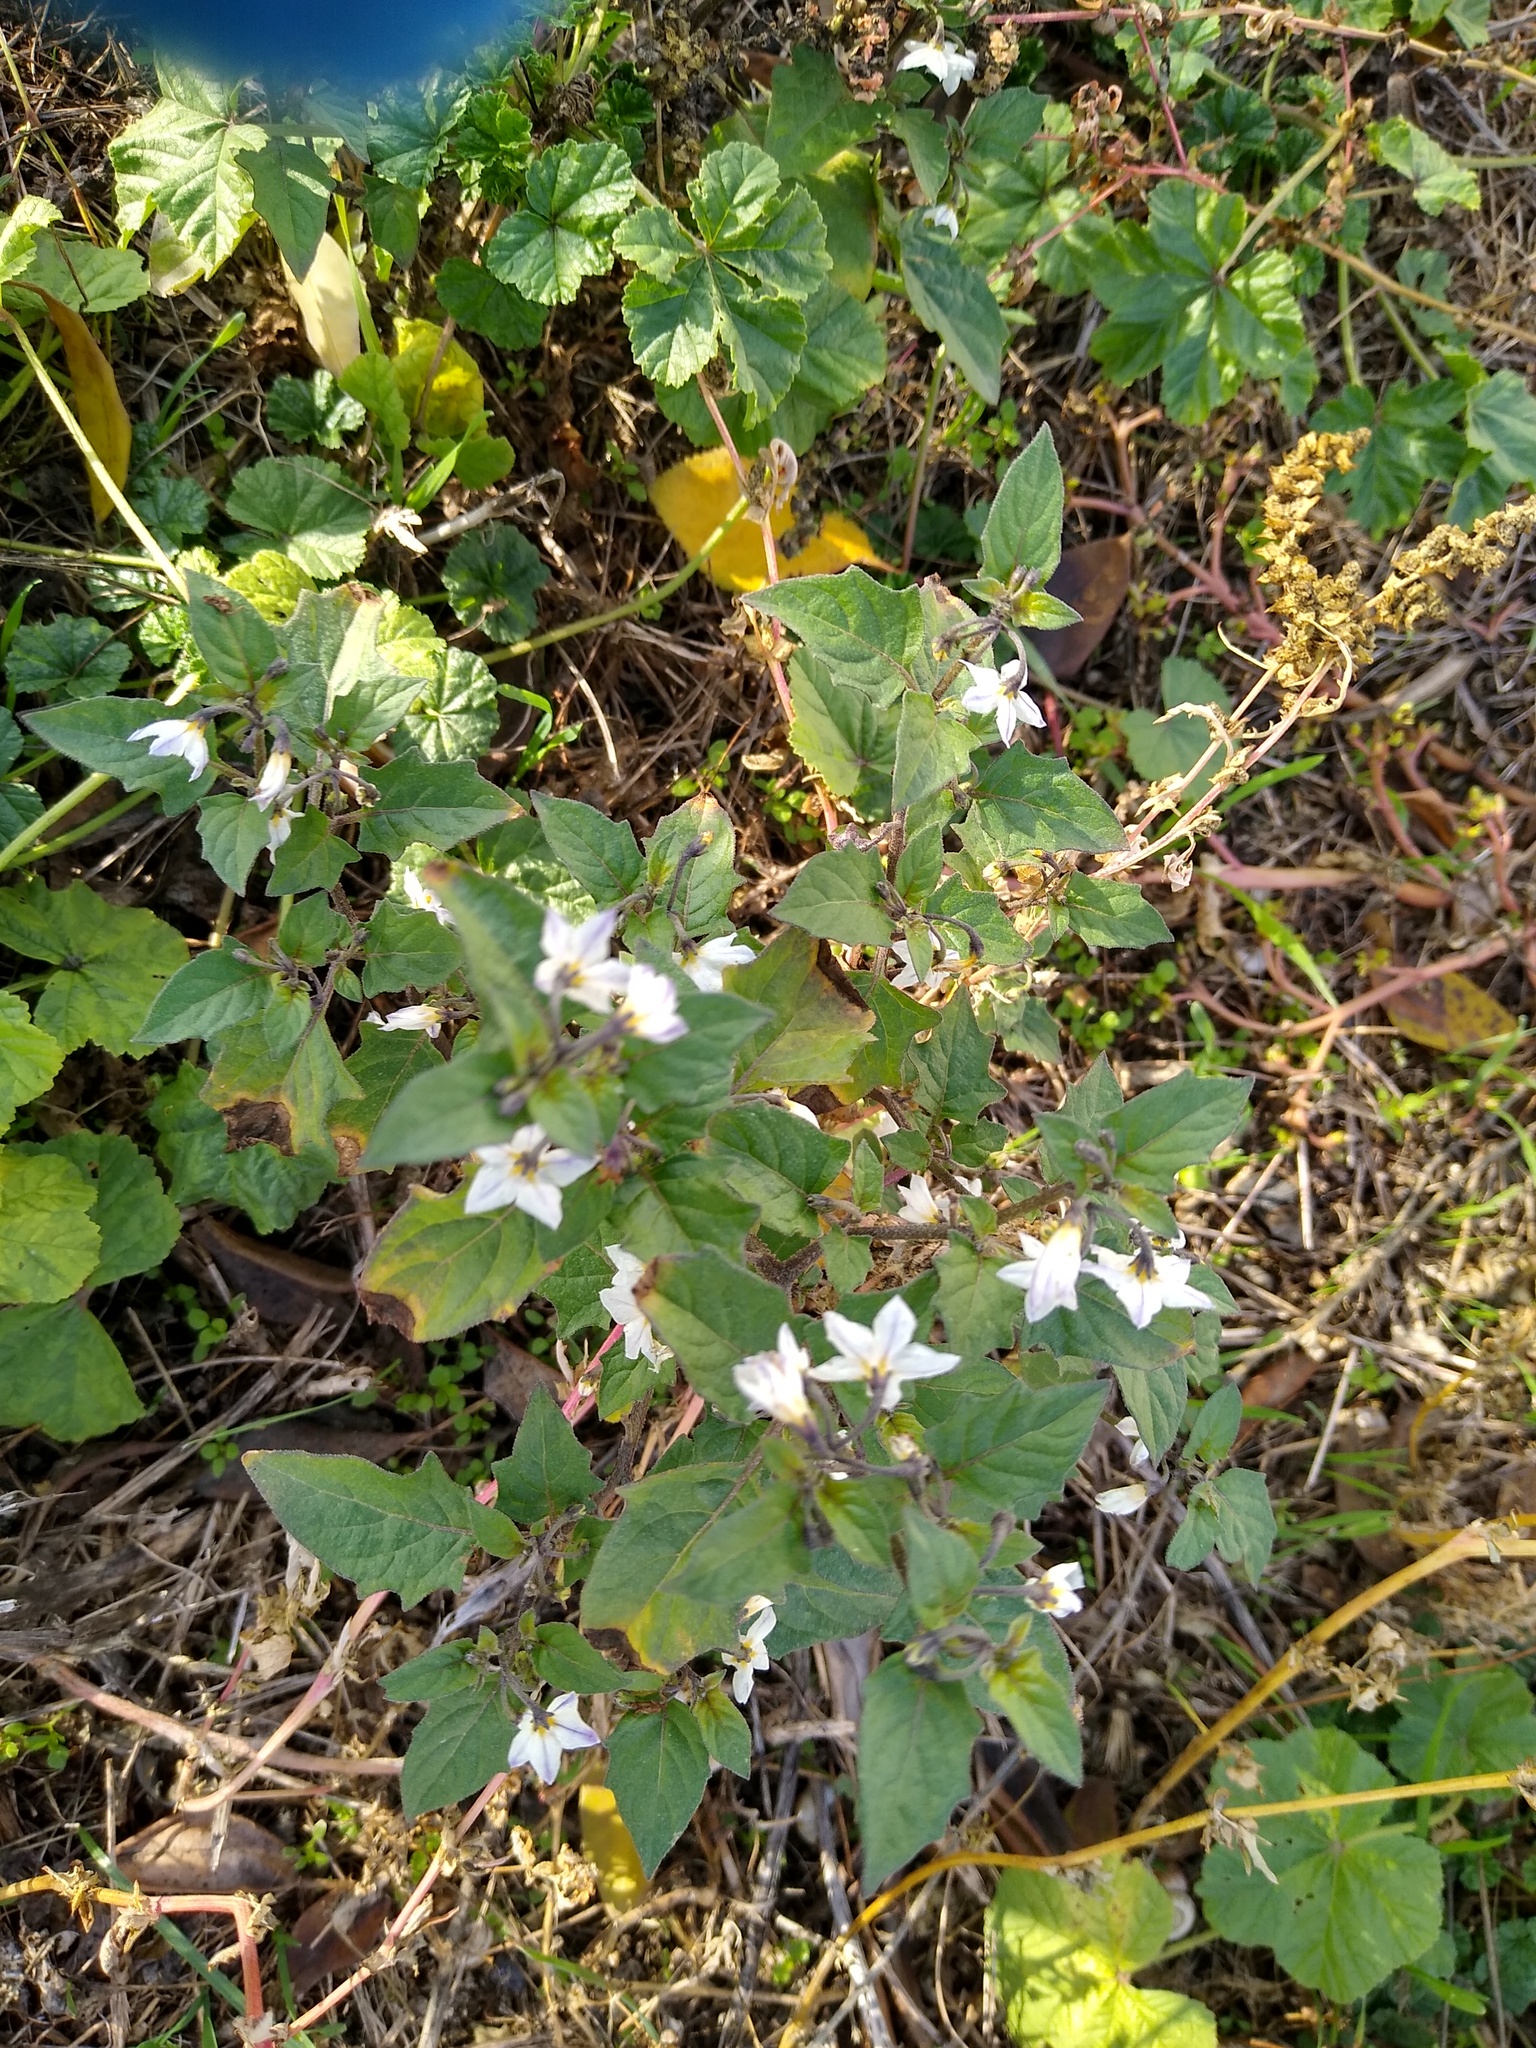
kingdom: Plantae
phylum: Tracheophyta
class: Magnoliopsida
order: Solanales
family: Solanaceae
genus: Solanum
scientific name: Solanum nigrum
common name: Black nightshade
